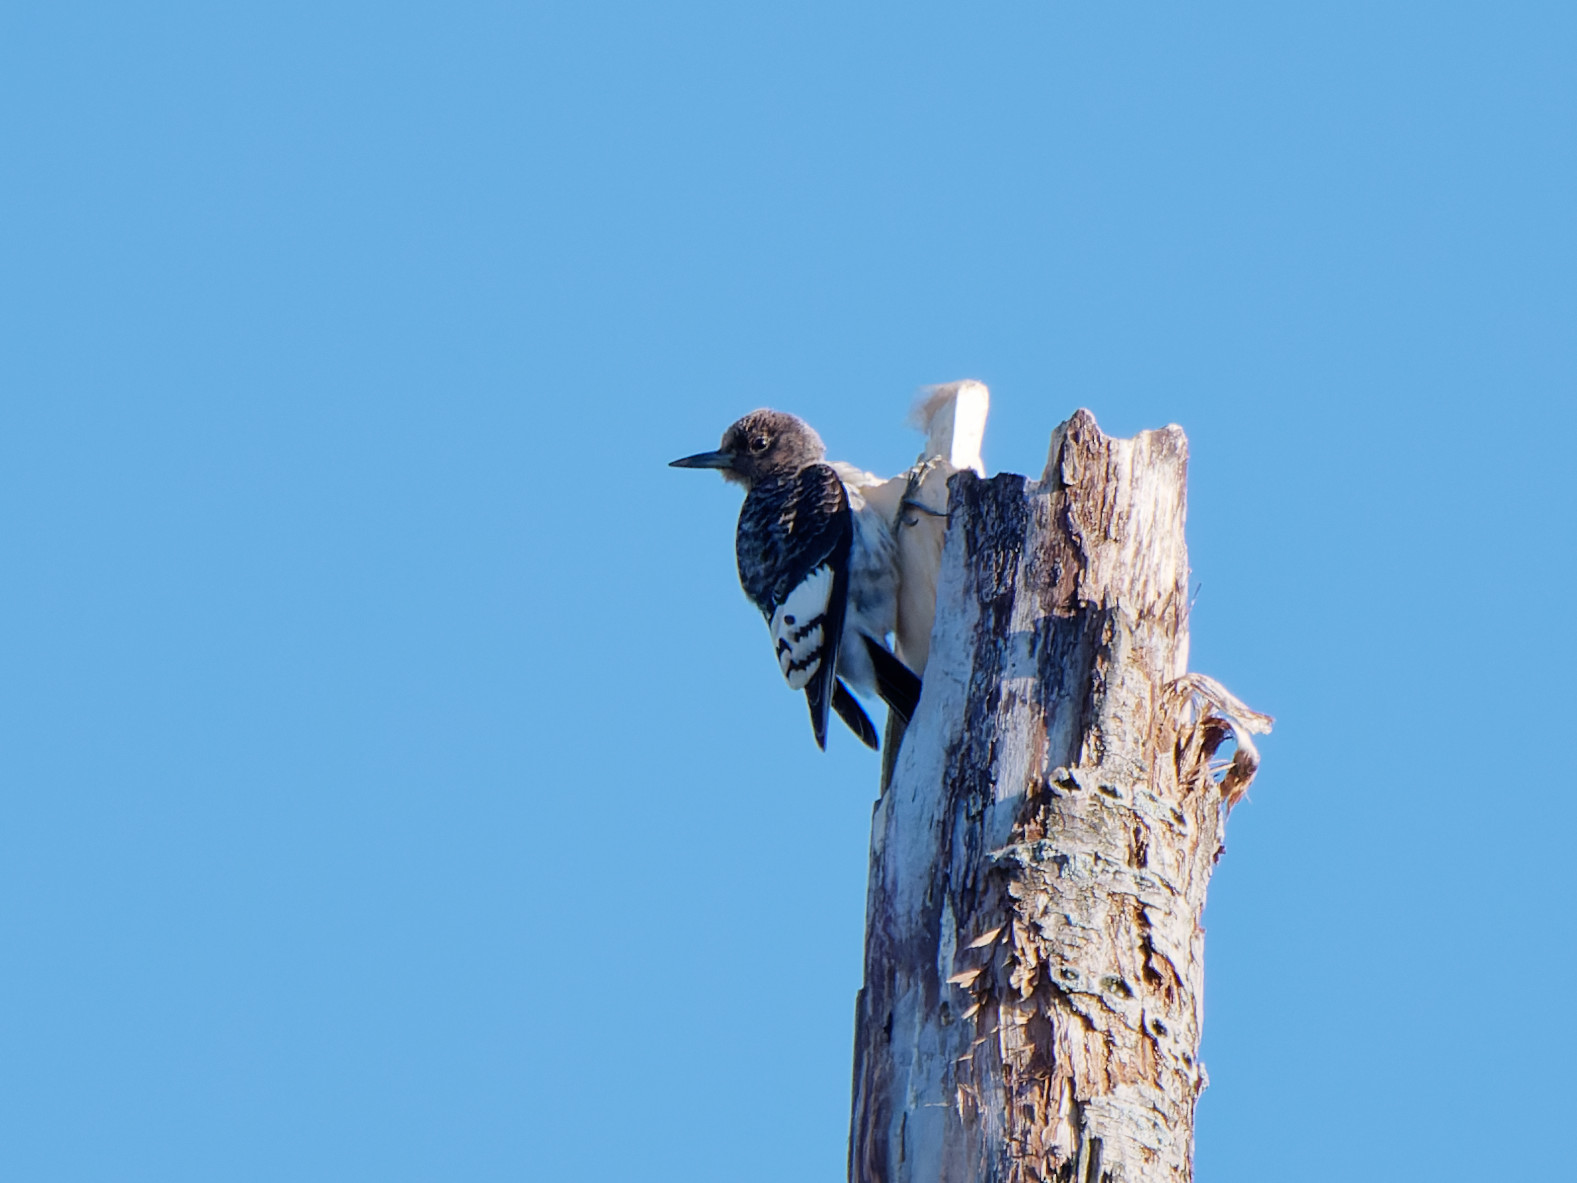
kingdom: Animalia
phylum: Chordata
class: Aves
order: Piciformes
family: Picidae
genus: Melanerpes
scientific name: Melanerpes erythrocephalus
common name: Red-headed woodpecker
